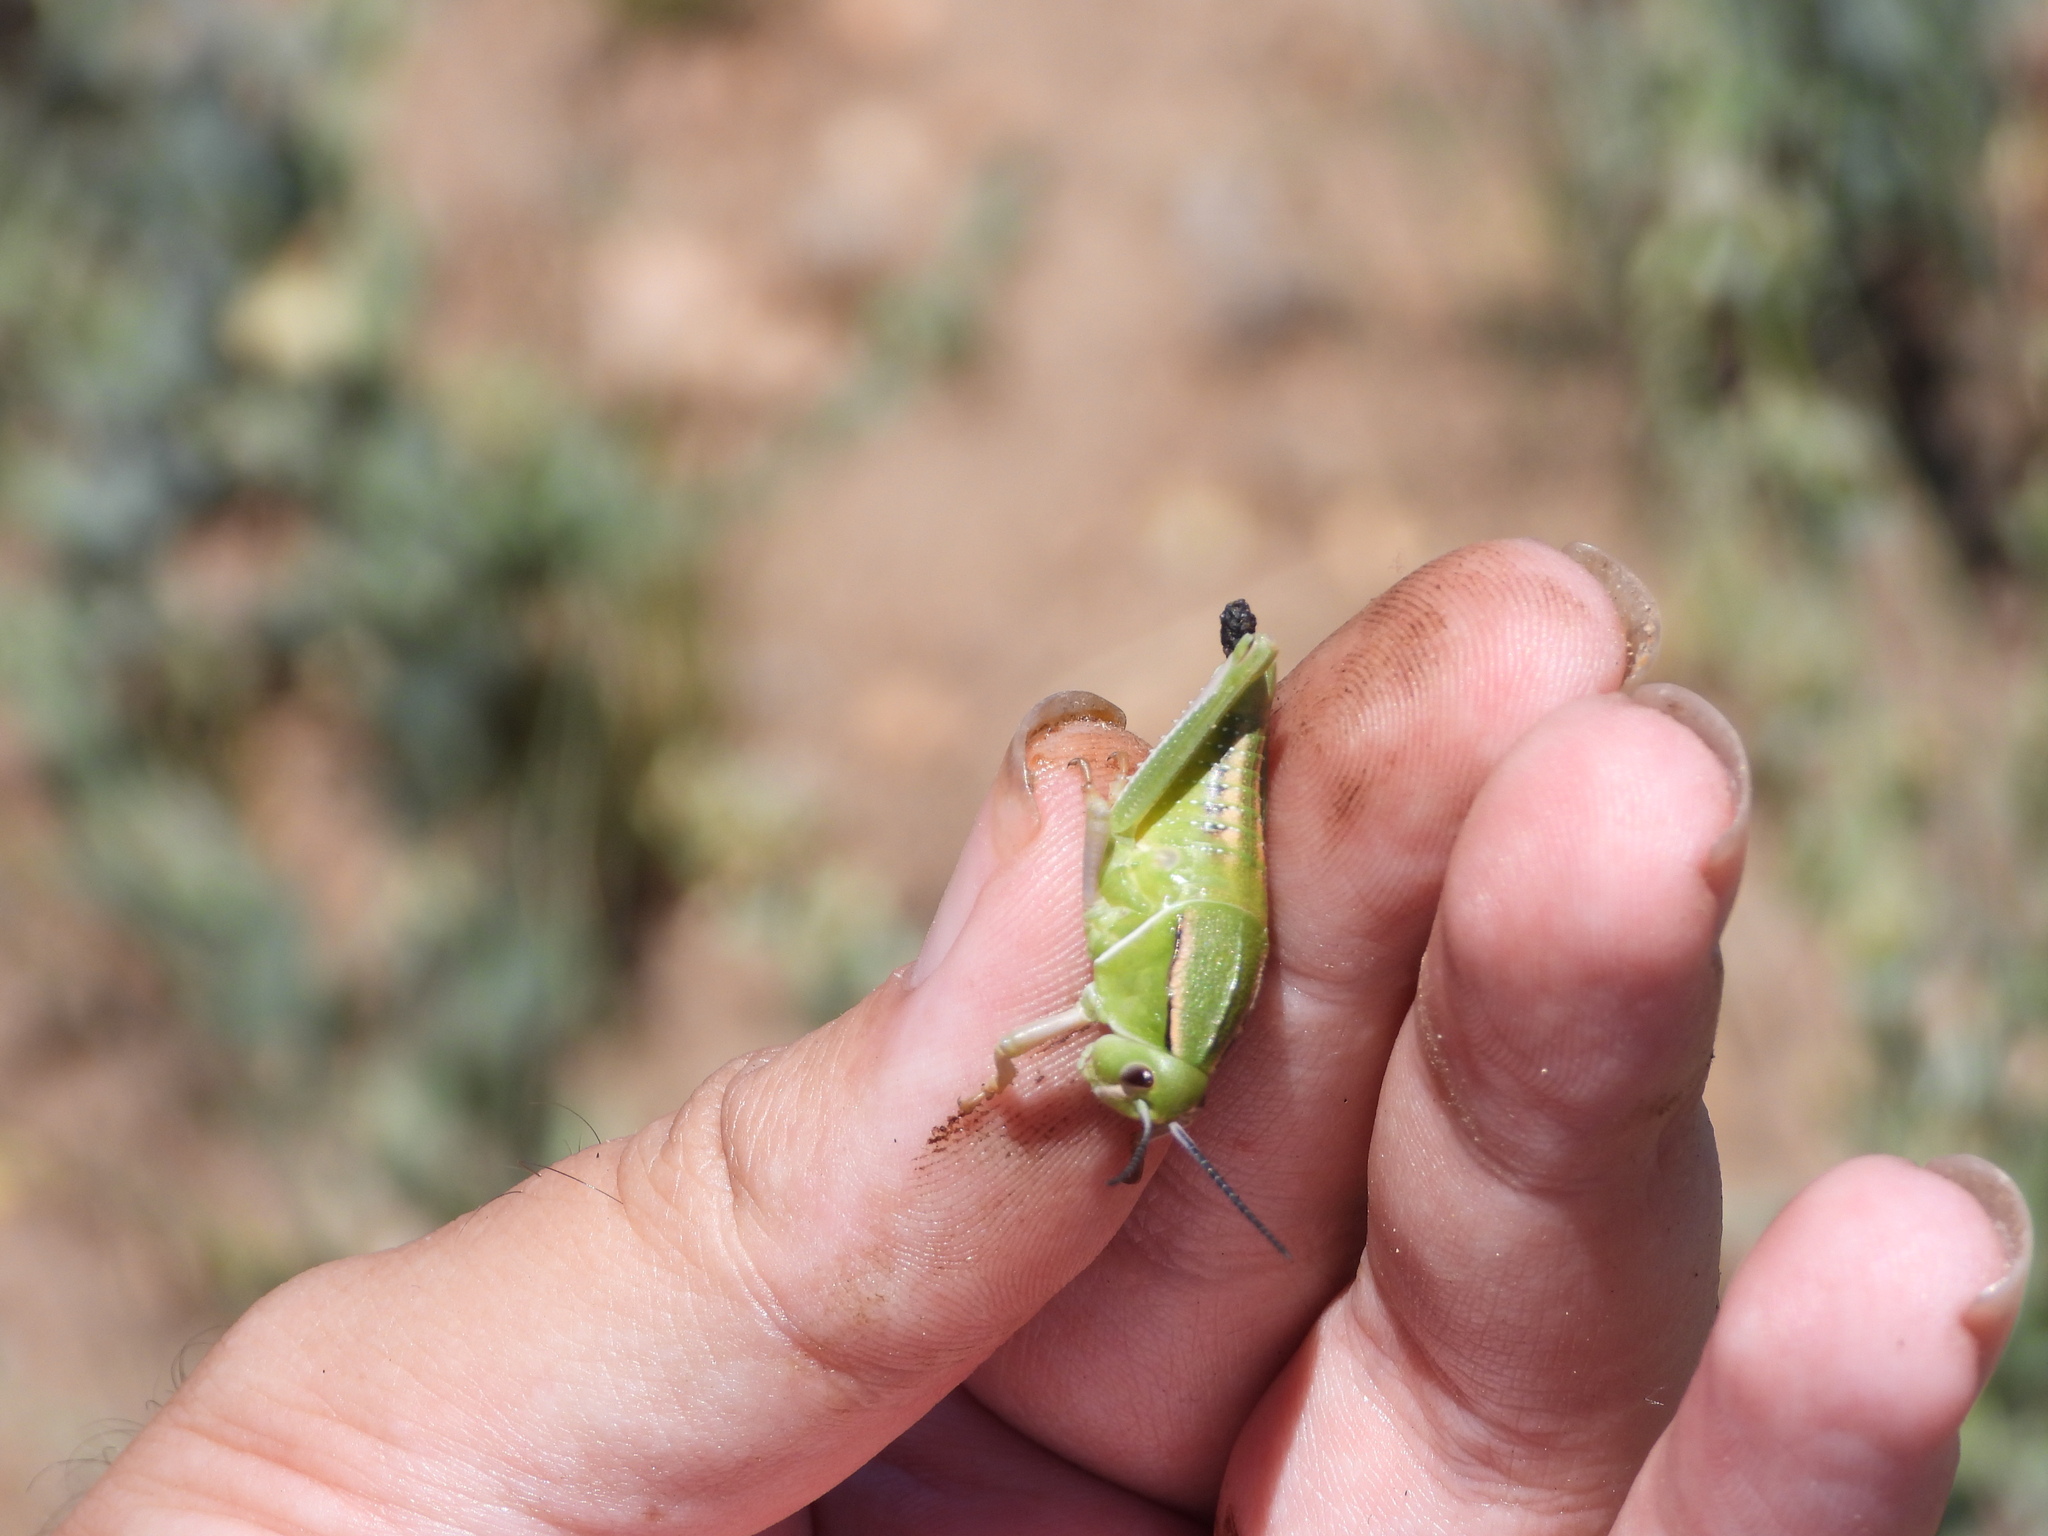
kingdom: Animalia
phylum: Arthropoda
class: Insecta
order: Orthoptera
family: Romaleidae
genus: Brachystola
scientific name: Brachystola magna
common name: Plains lubber grasshopper
